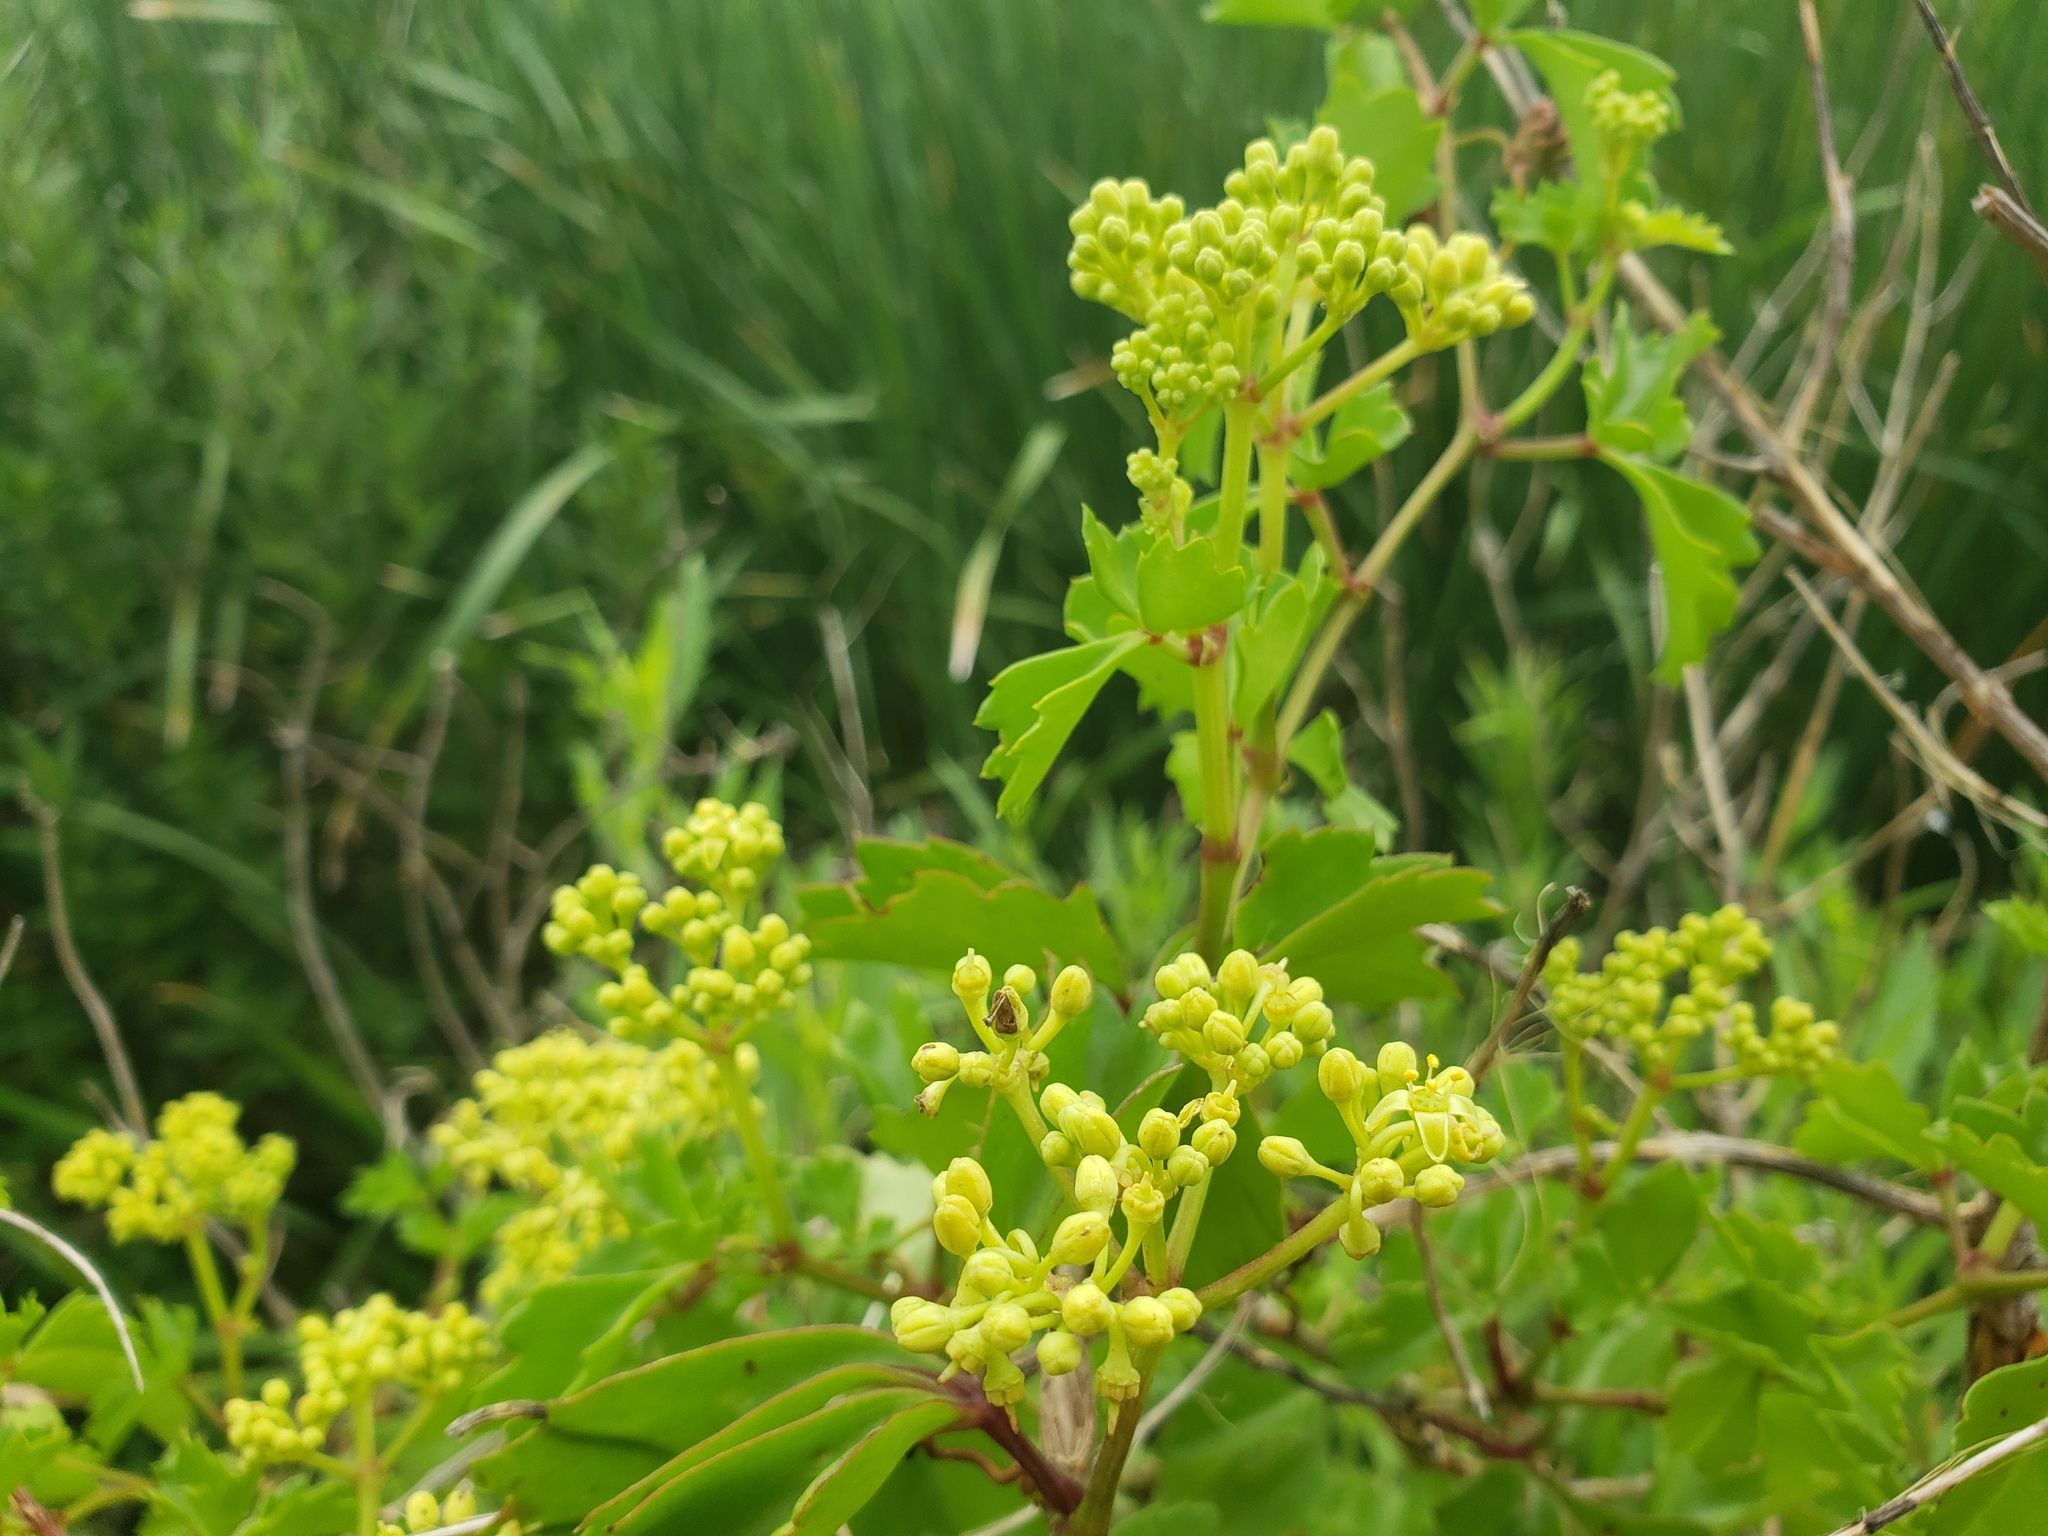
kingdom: Plantae
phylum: Tracheophyta
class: Magnoliopsida
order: Vitales
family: Vitaceae
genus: Cissus
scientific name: Cissus trifoliata
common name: Vine-sorrel
